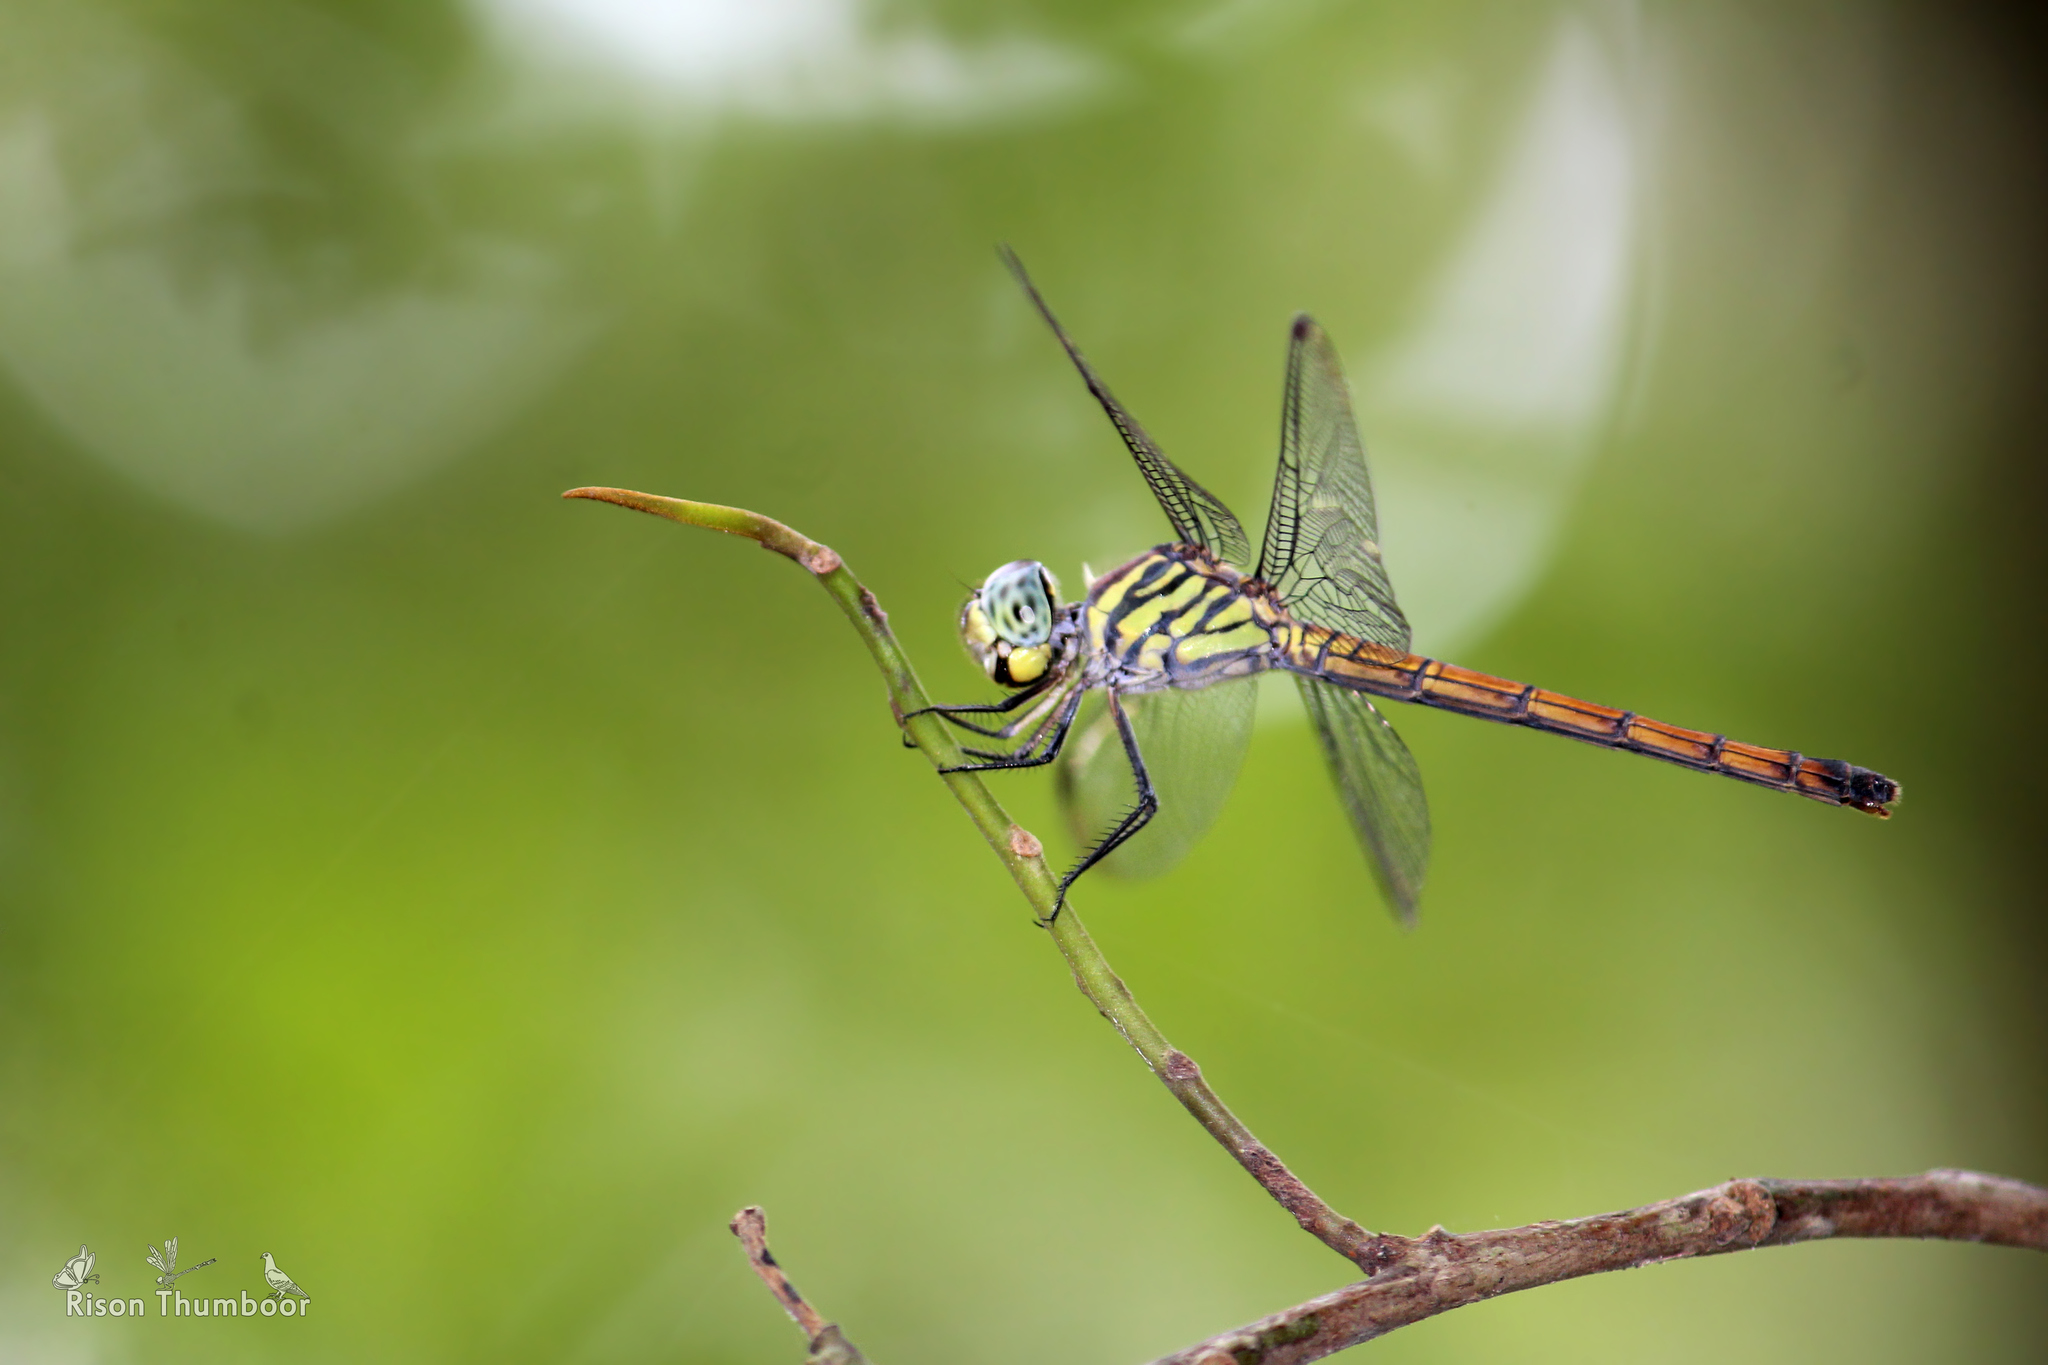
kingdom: Animalia
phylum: Arthropoda
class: Insecta
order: Odonata
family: Libellulidae
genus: Lathrecista
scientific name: Lathrecista asiatica
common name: Scarlet grenadier
